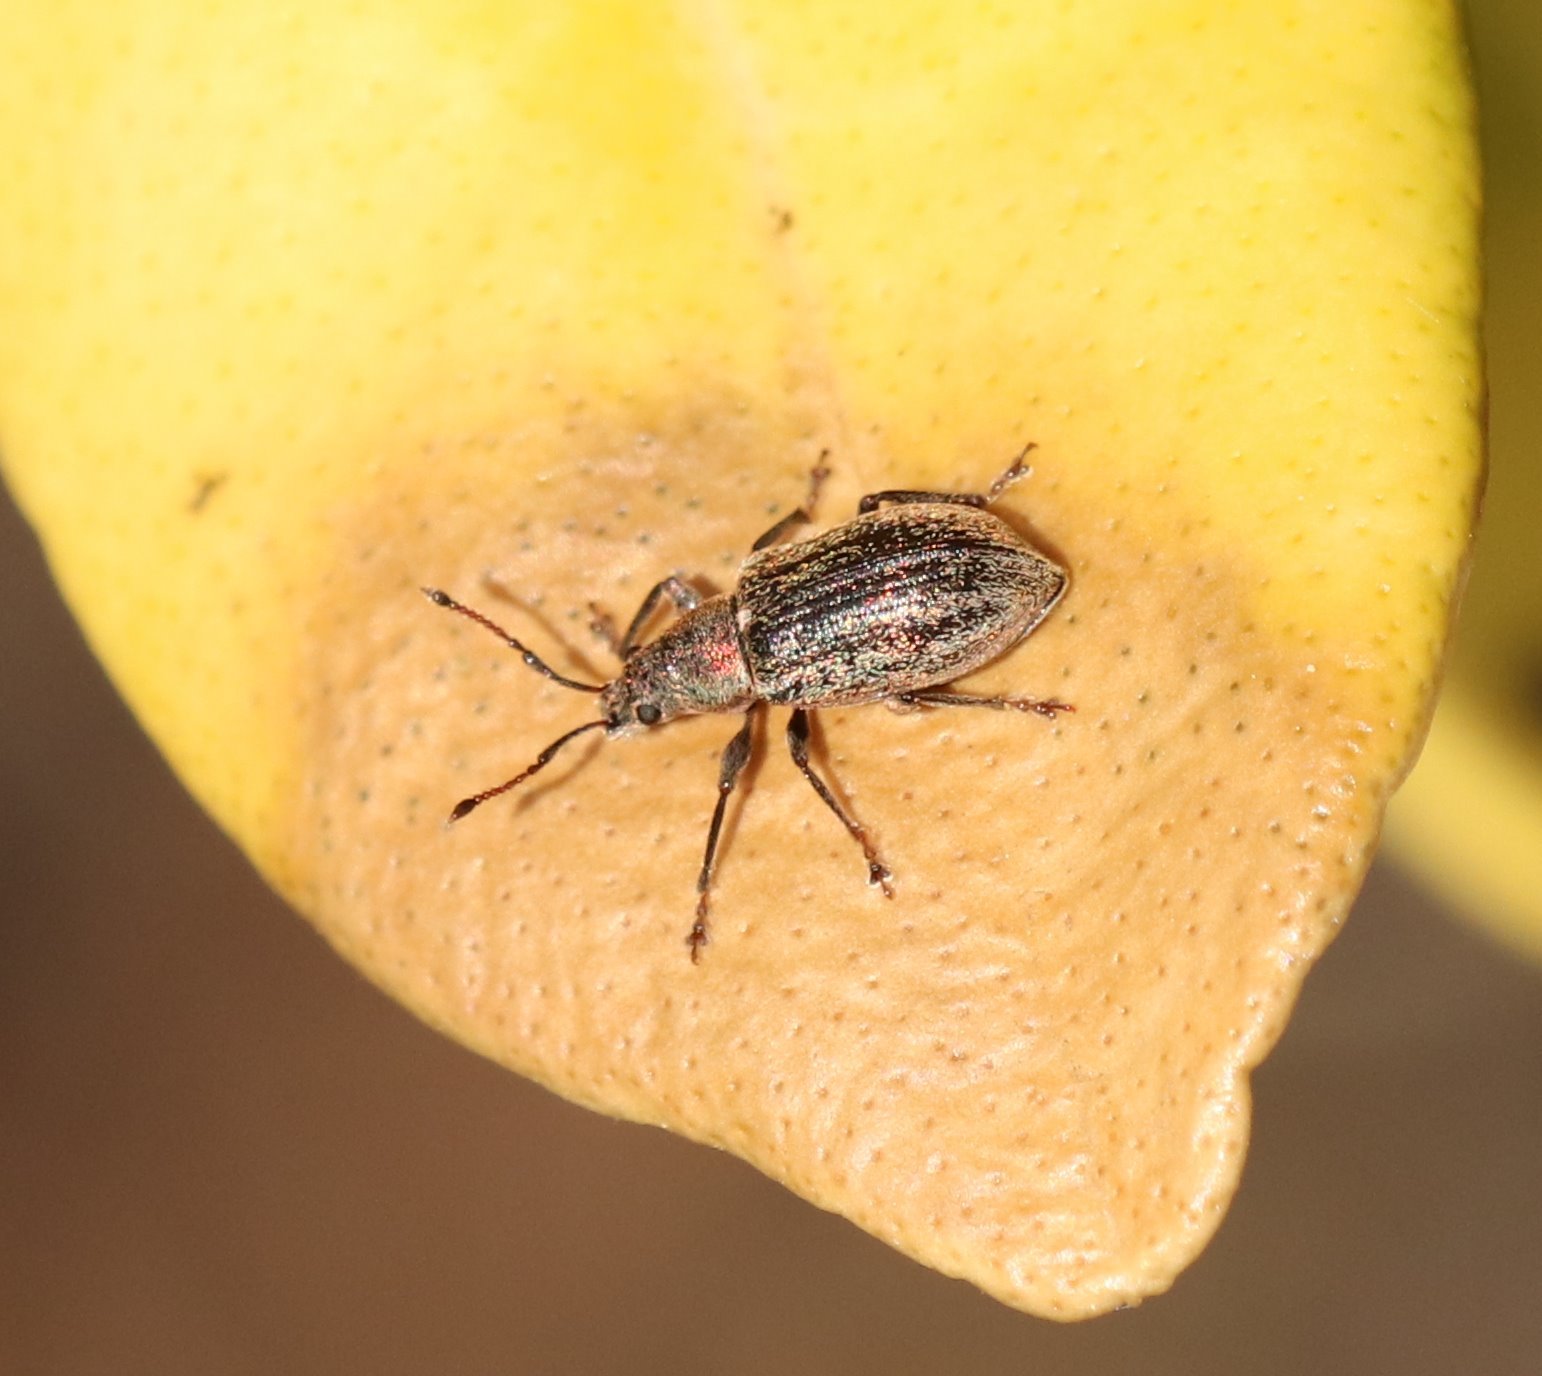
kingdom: Animalia
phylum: Arthropoda
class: Insecta
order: Coleoptera
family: Curculionidae
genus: Phyllobius
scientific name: Phyllobius pyri
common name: Common leaf weevil
